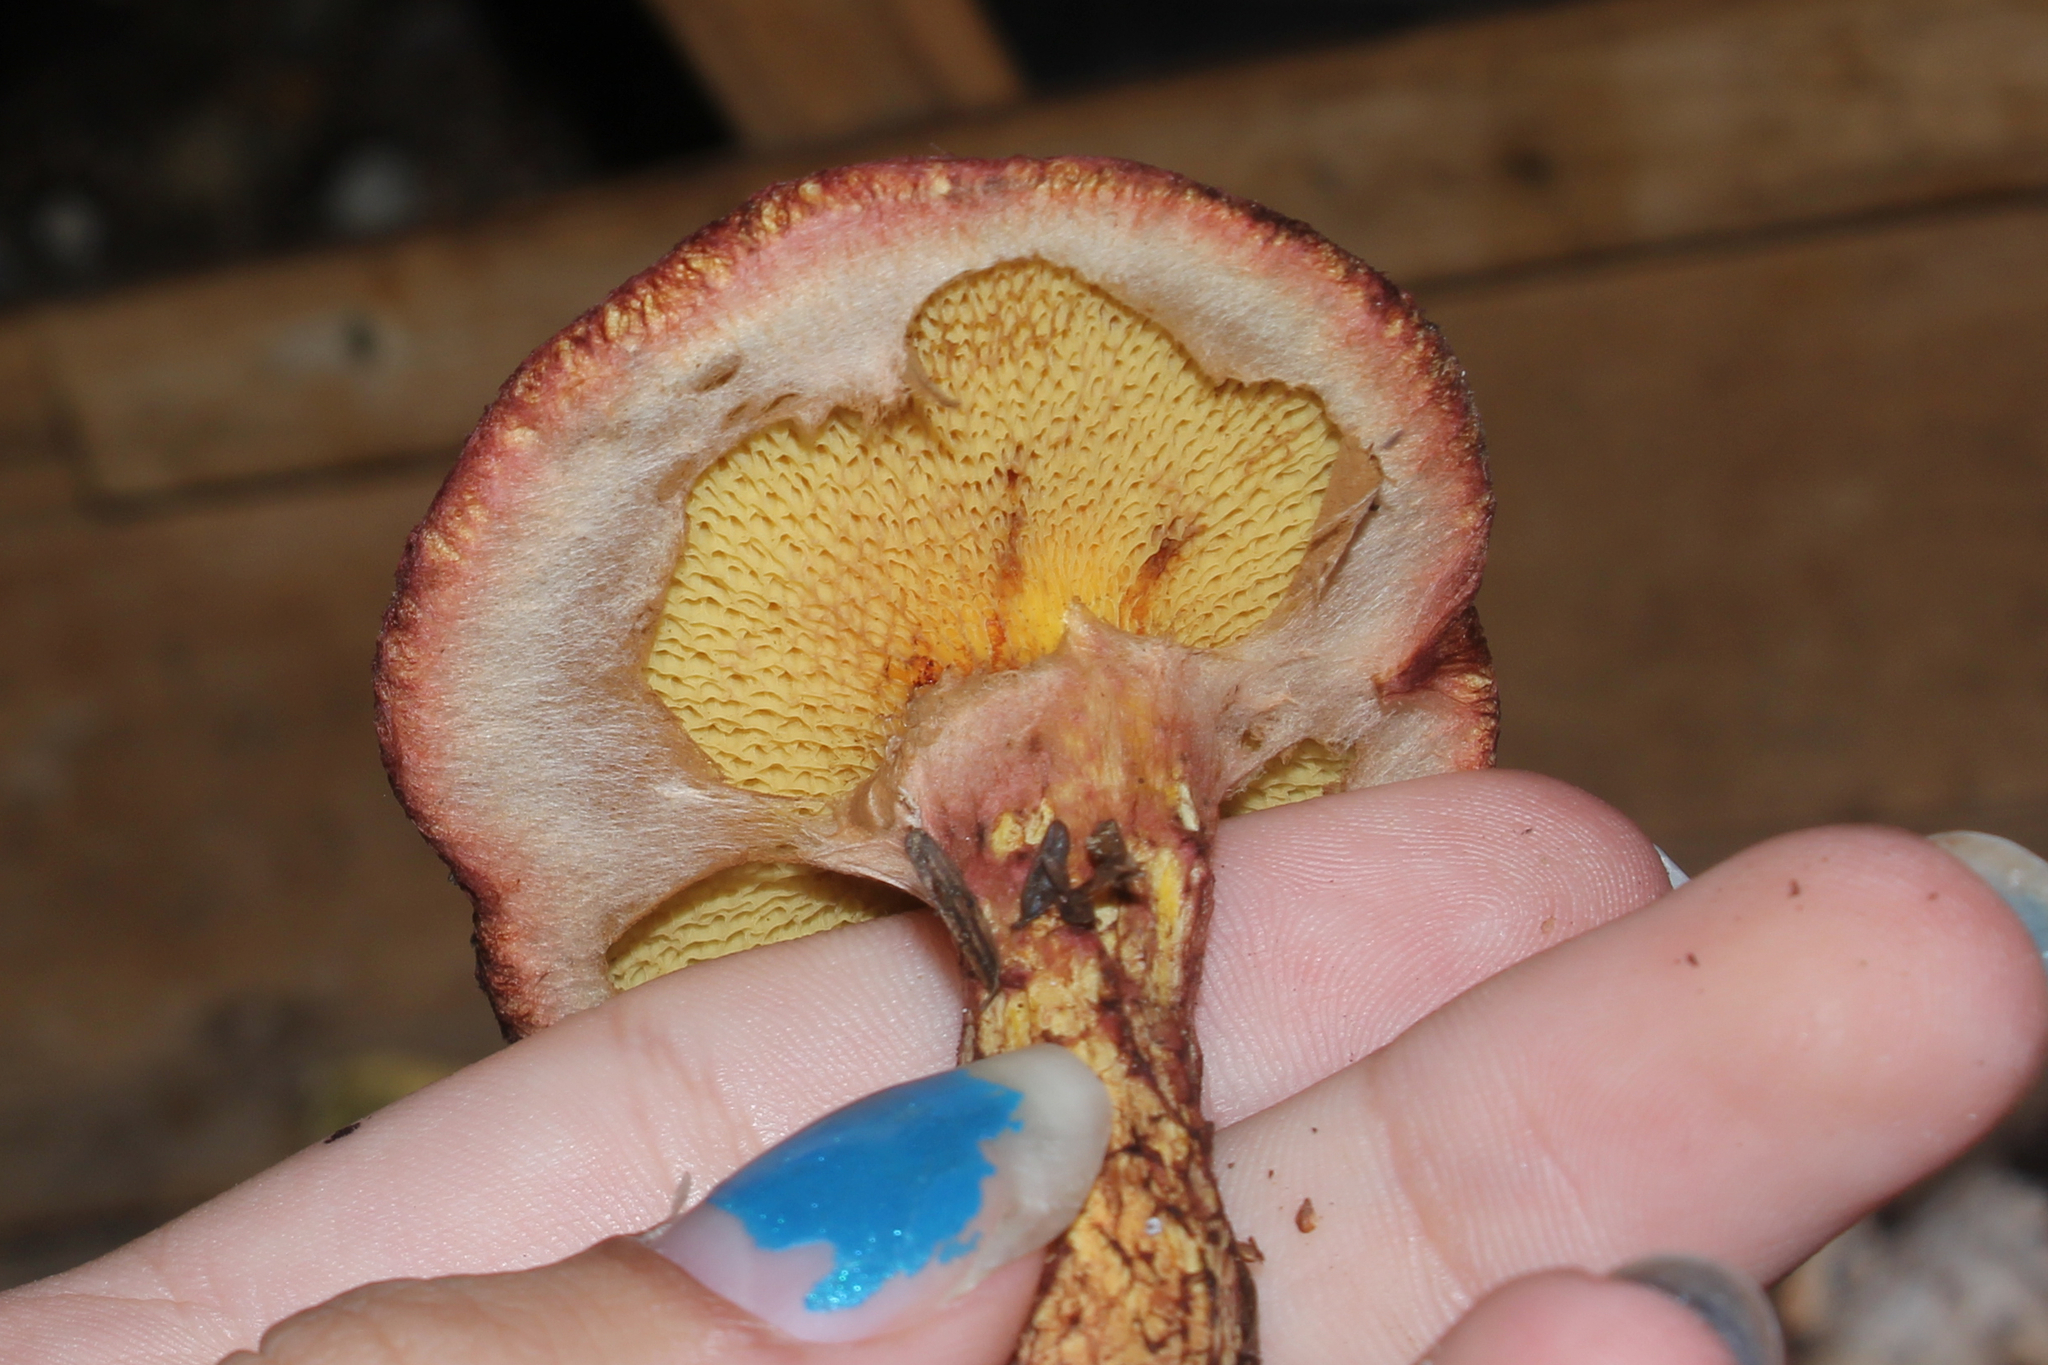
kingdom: Fungi
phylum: Basidiomycota
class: Agaricomycetes
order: Boletales
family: Suillaceae
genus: Suillus
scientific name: Suillus spraguei
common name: Painted suillus
